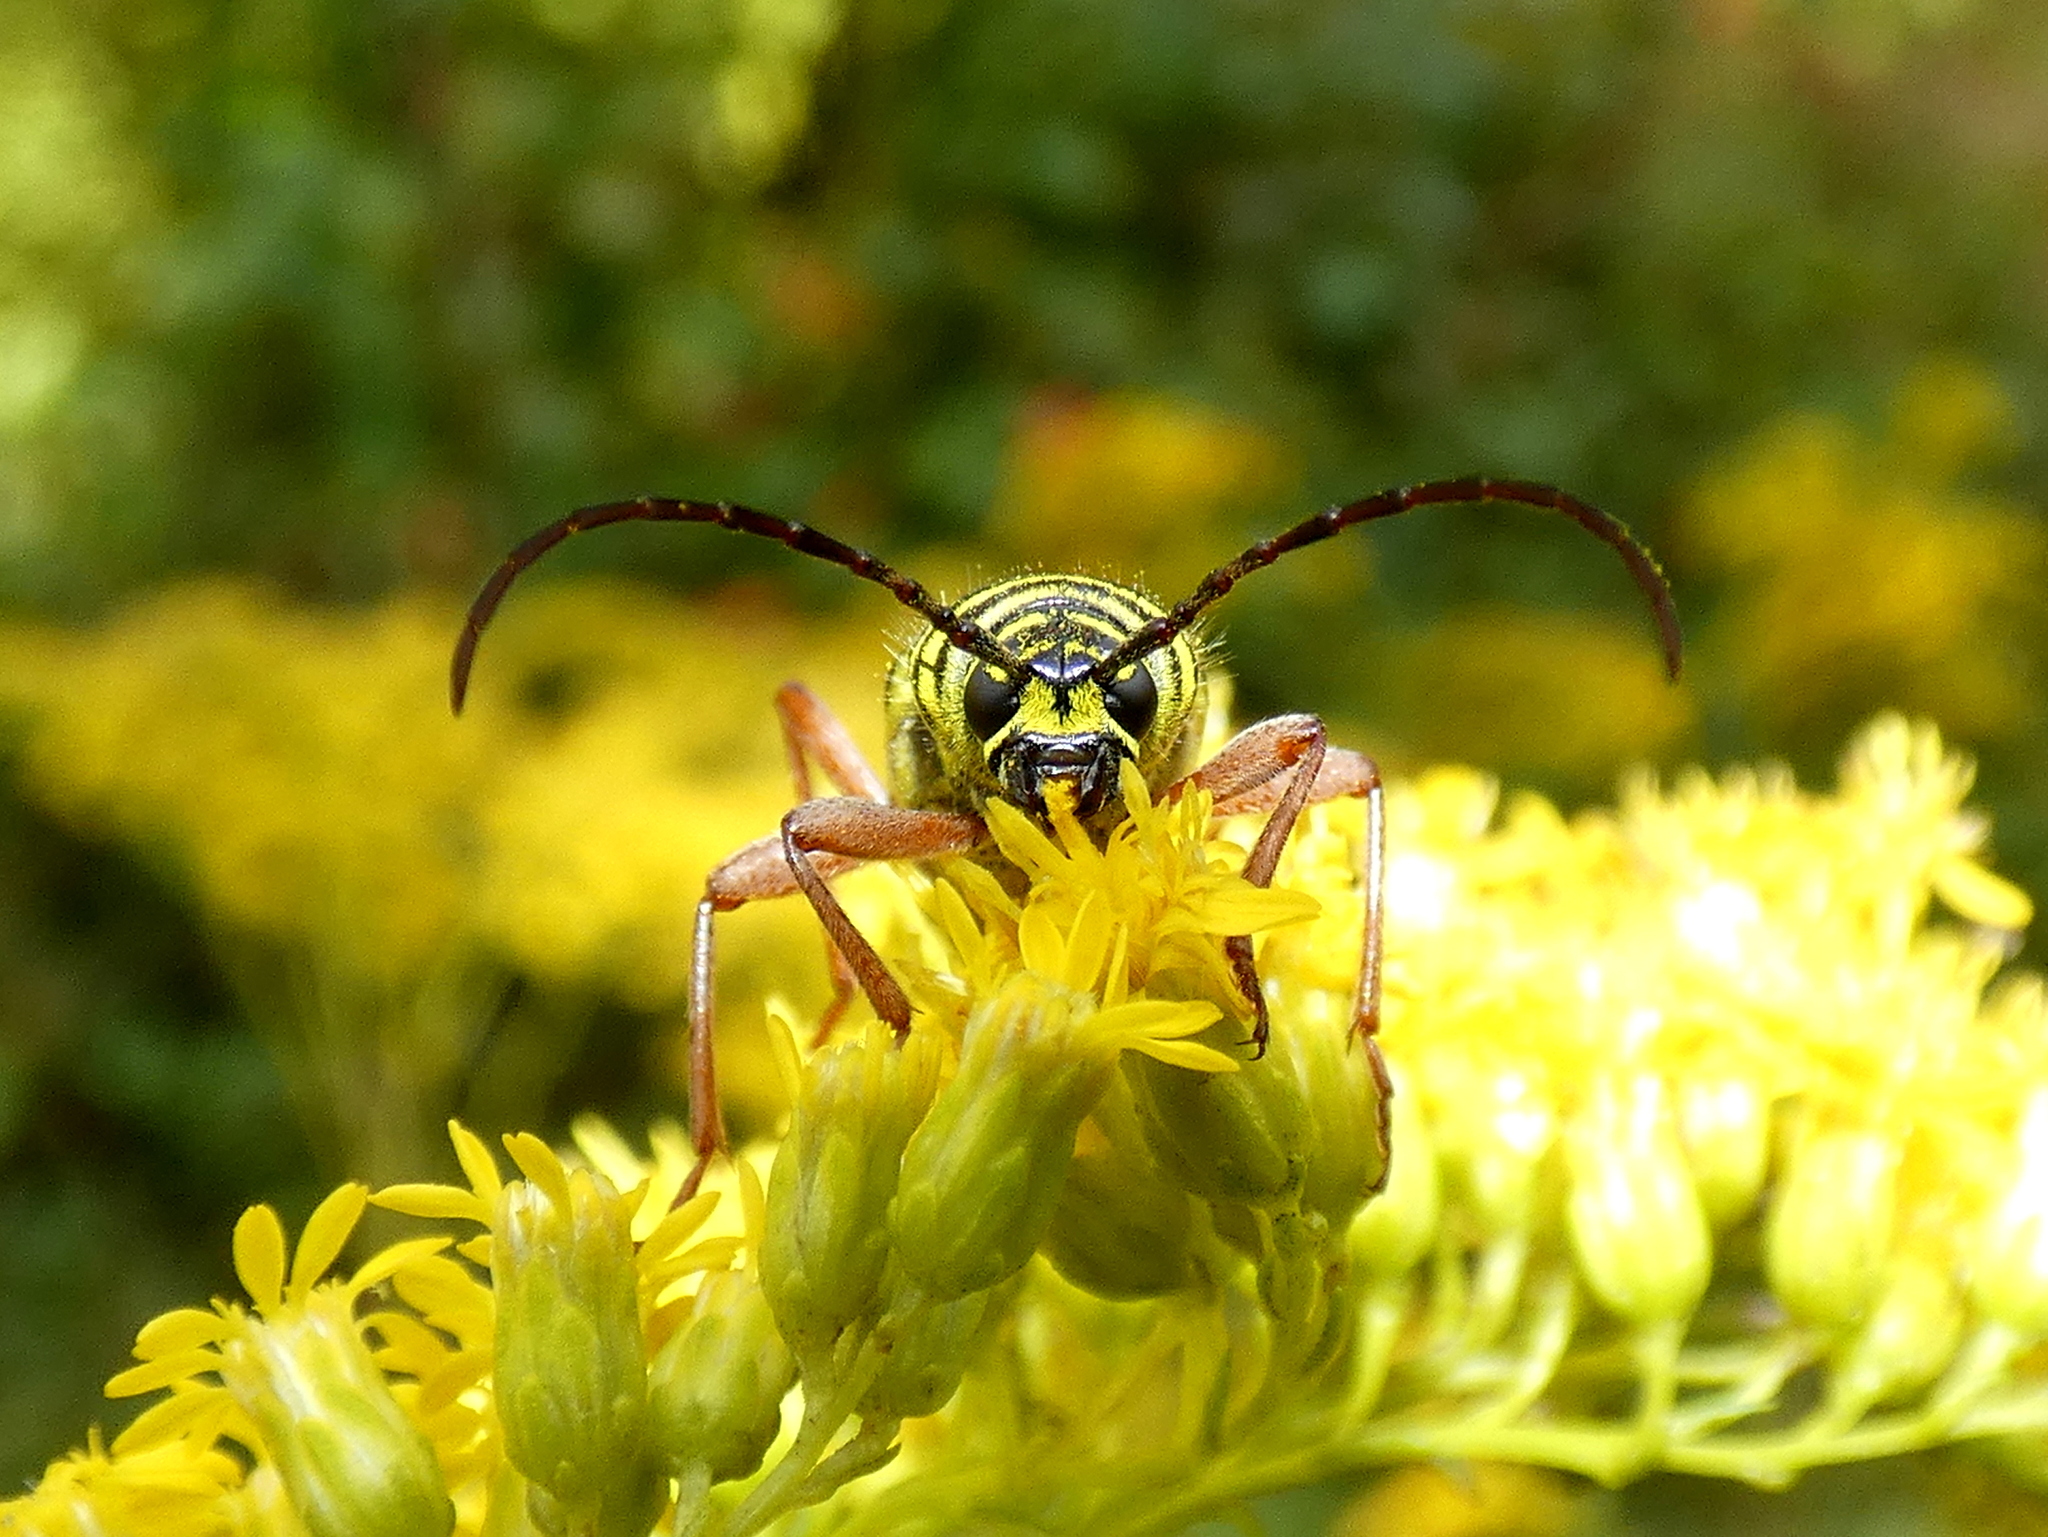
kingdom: Animalia
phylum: Arthropoda
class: Insecta
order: Coleoptera
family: Cerambycidae
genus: Megacyllene
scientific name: Megacyllene robiniae
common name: Locust borer
